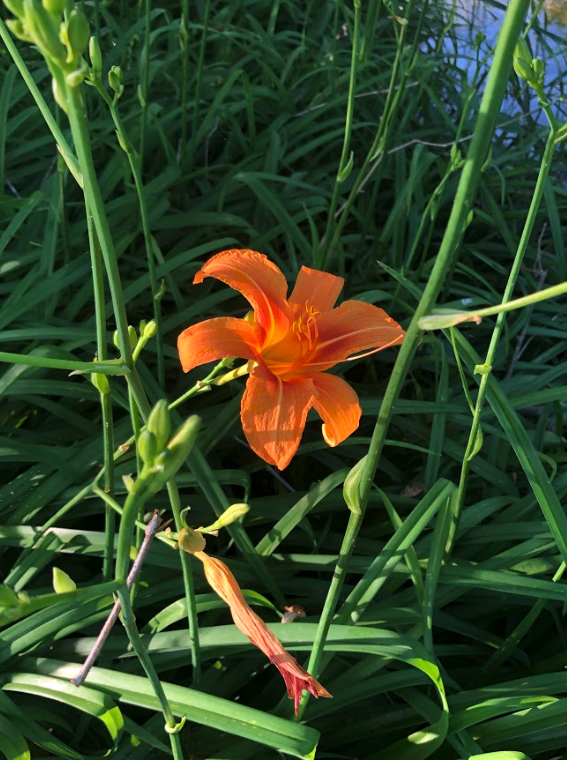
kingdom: Plantae
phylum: Tracheophyta
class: Liliopsida
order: Asparagales
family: Asphodelaceae
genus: Hemerocallis
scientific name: Hemerocallis fulva
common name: Orange day-lily
